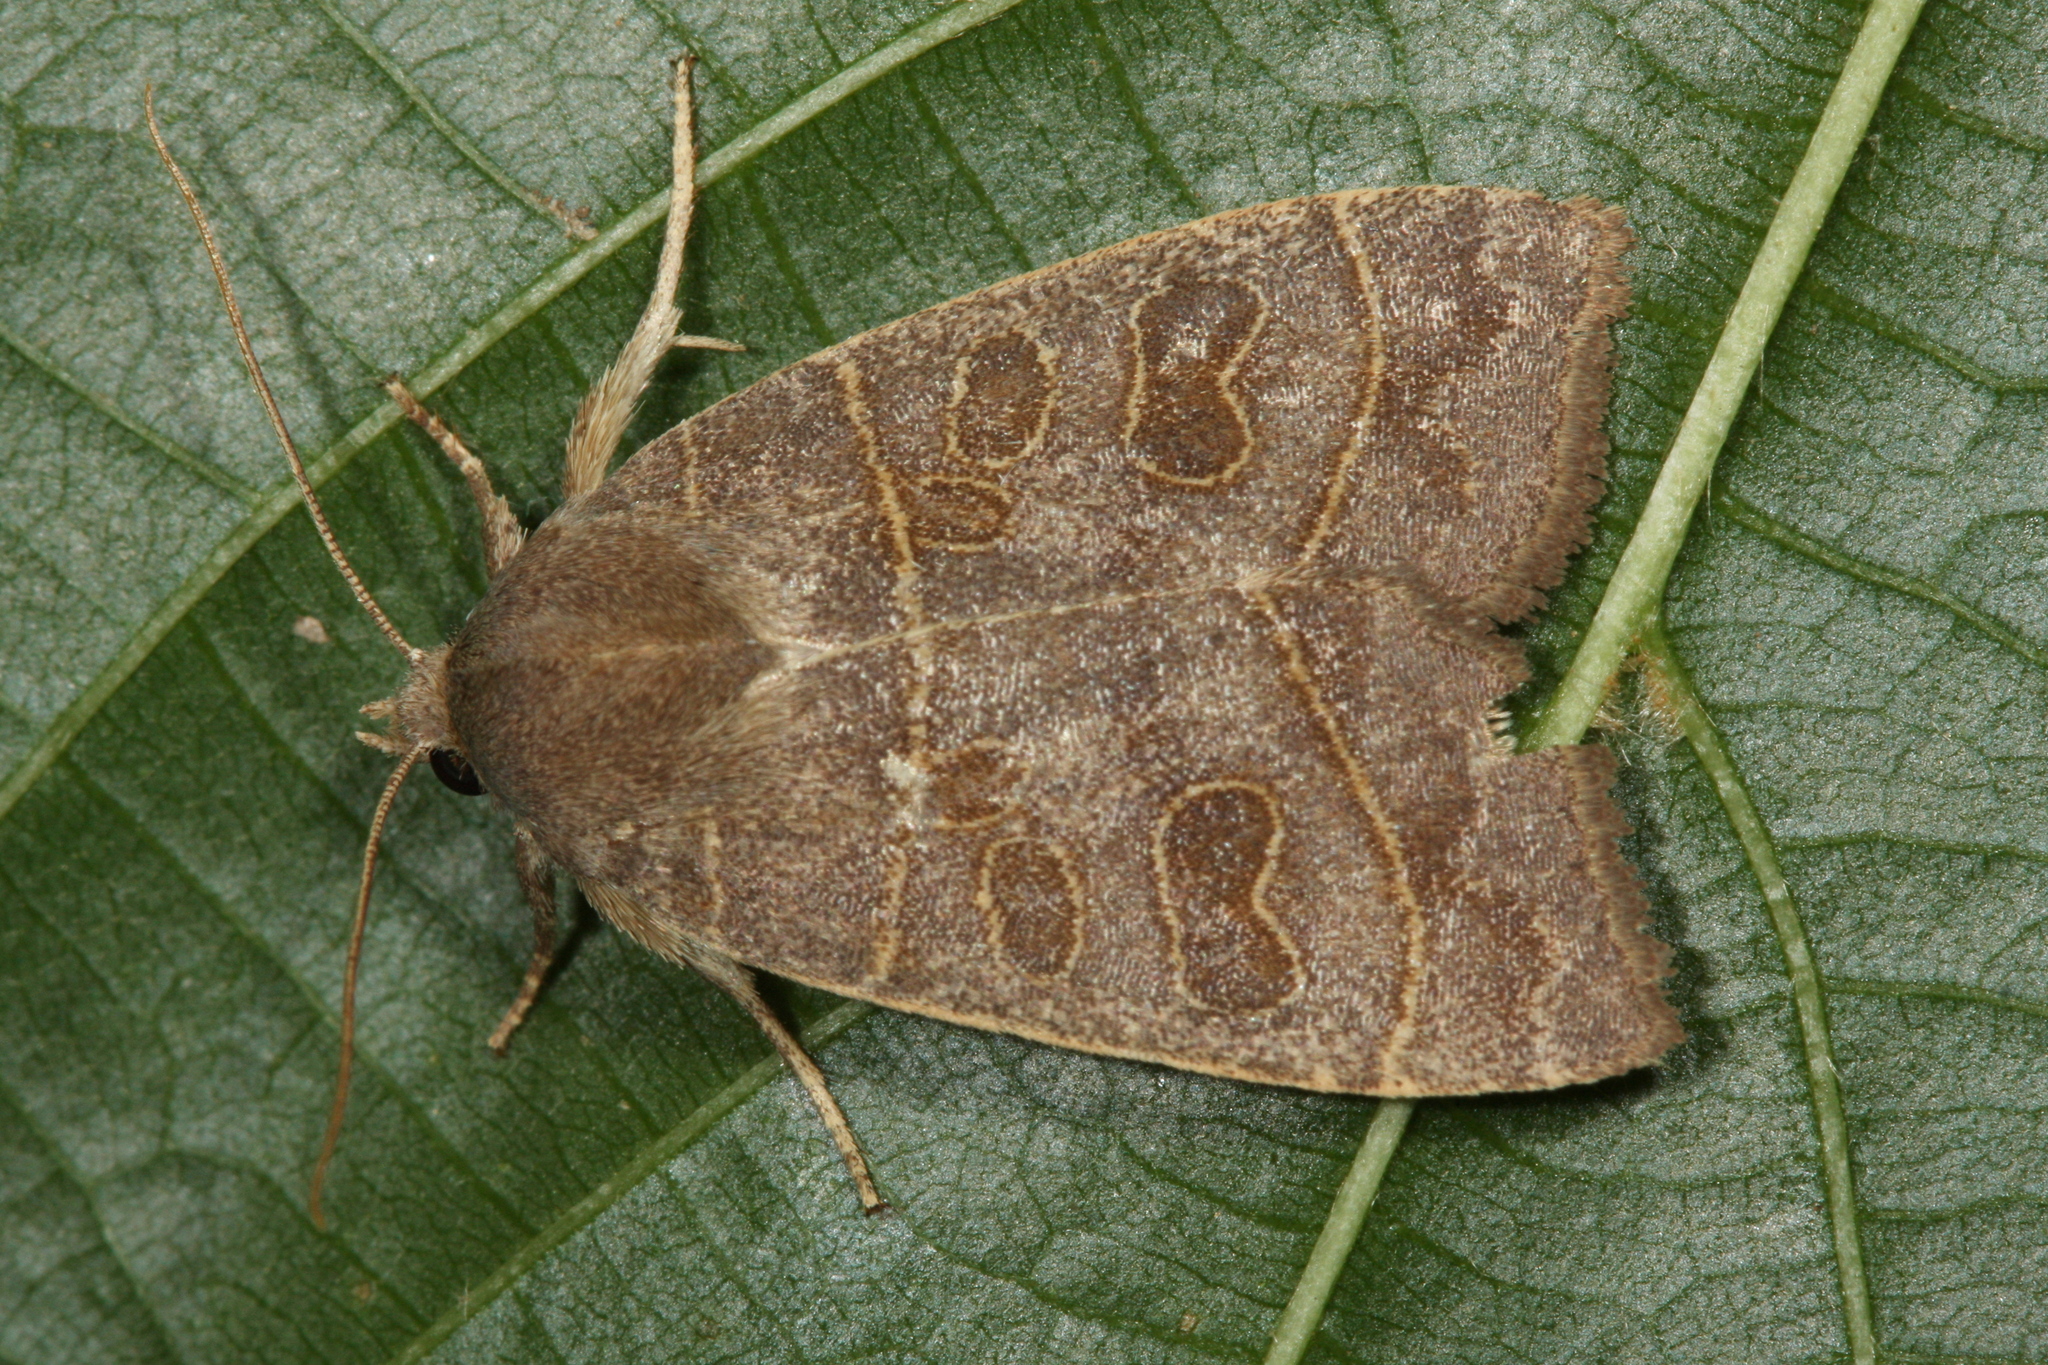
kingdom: Animalia
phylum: Arthropoda
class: Insecta
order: Lepidoptera
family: Noctuidae
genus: Ipimorpha
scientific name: Ipimorpha subtusa
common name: Olive
